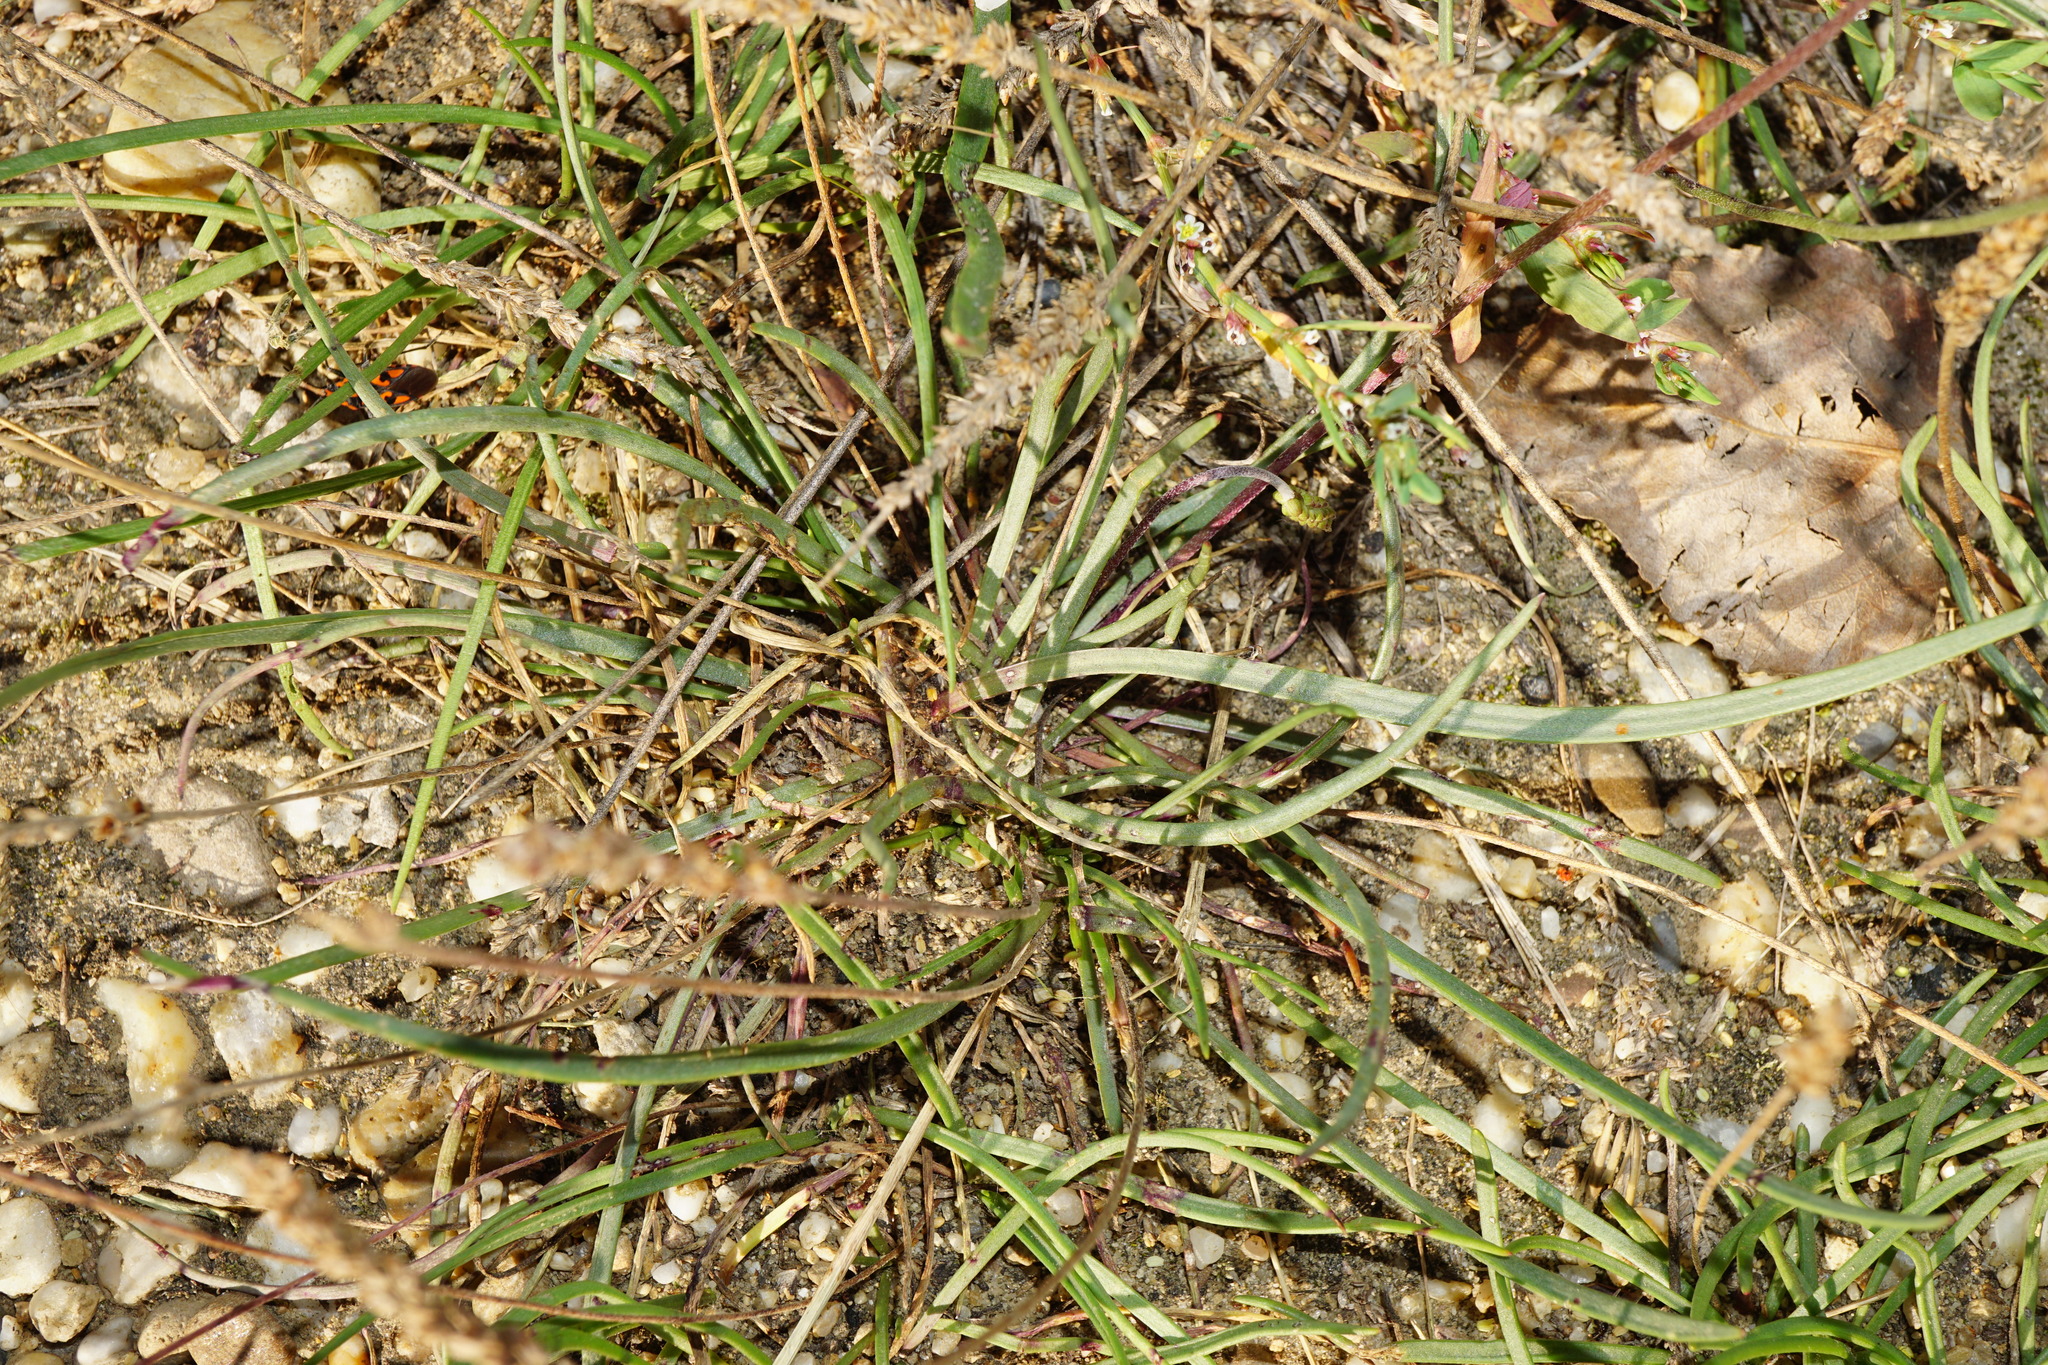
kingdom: Plantae
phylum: Tracheophyta
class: Magnoliopsida
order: Lamiales
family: Plantaginaceae
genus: Plantago
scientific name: Plantago maritima
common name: Sea plantain
